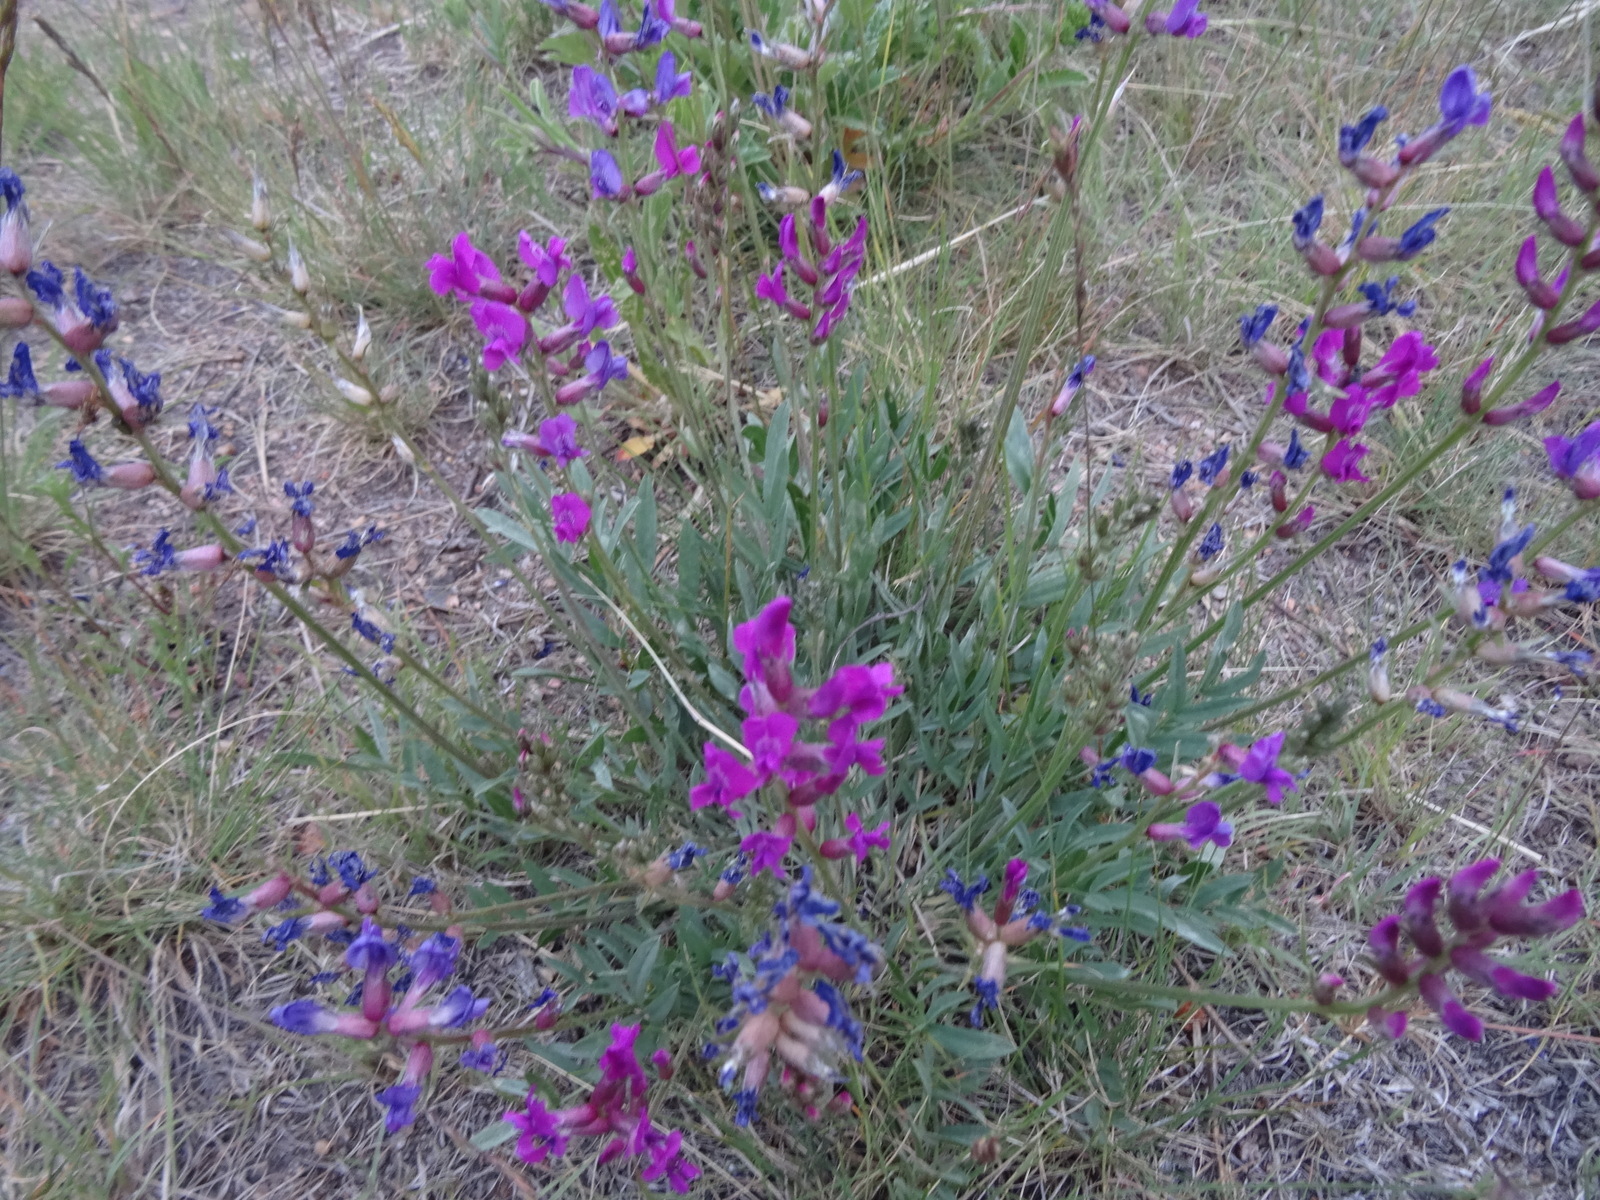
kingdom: Plantae
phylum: Tracheophyta
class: Magnoliopsida
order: Fabales
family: Fabaceae
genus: Oxytropis
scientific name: Oxytropis lambertii
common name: Purple locoweed
